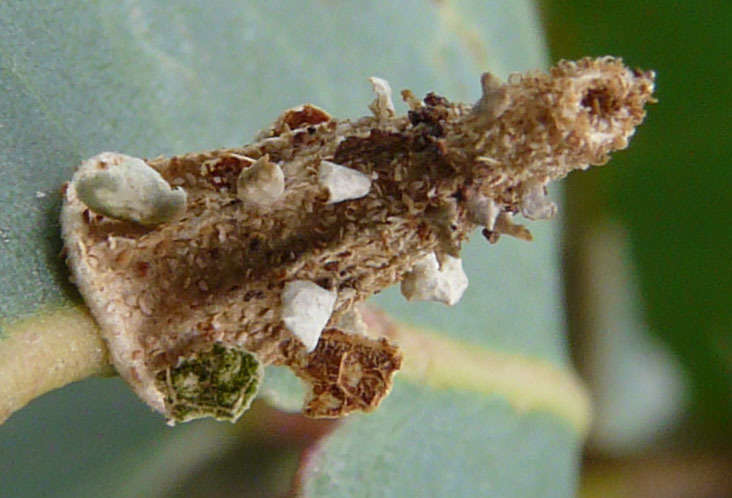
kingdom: Animalia
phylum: Arthropoda
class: Insecta
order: Lepidoptera
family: Psychidae
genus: Hyalarcta
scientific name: Hyalarcta nigrescens
